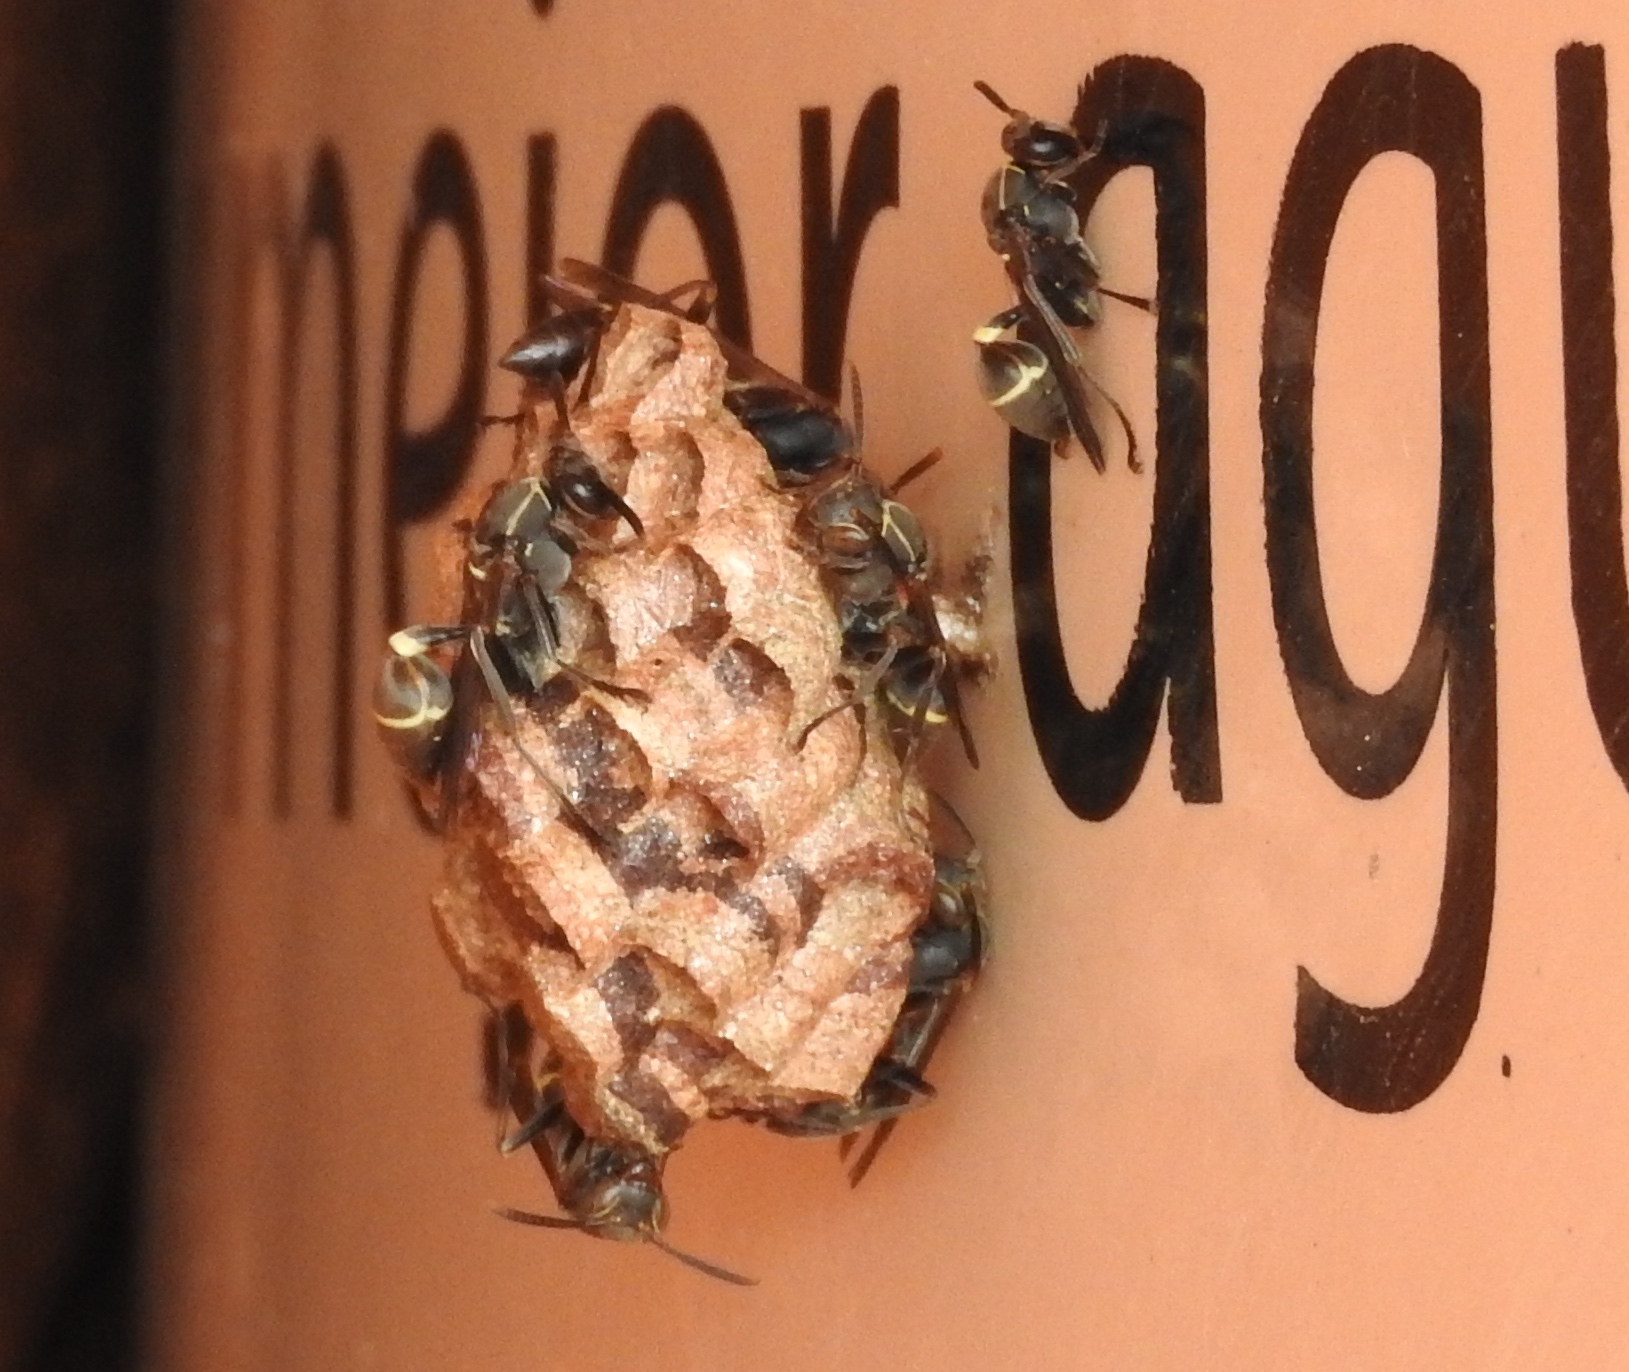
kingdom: Animalia
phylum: Arthropoda
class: Insecta
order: Hymenoptera
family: Vespidae
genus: Mischocyttarus
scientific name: Mischocyttarus
